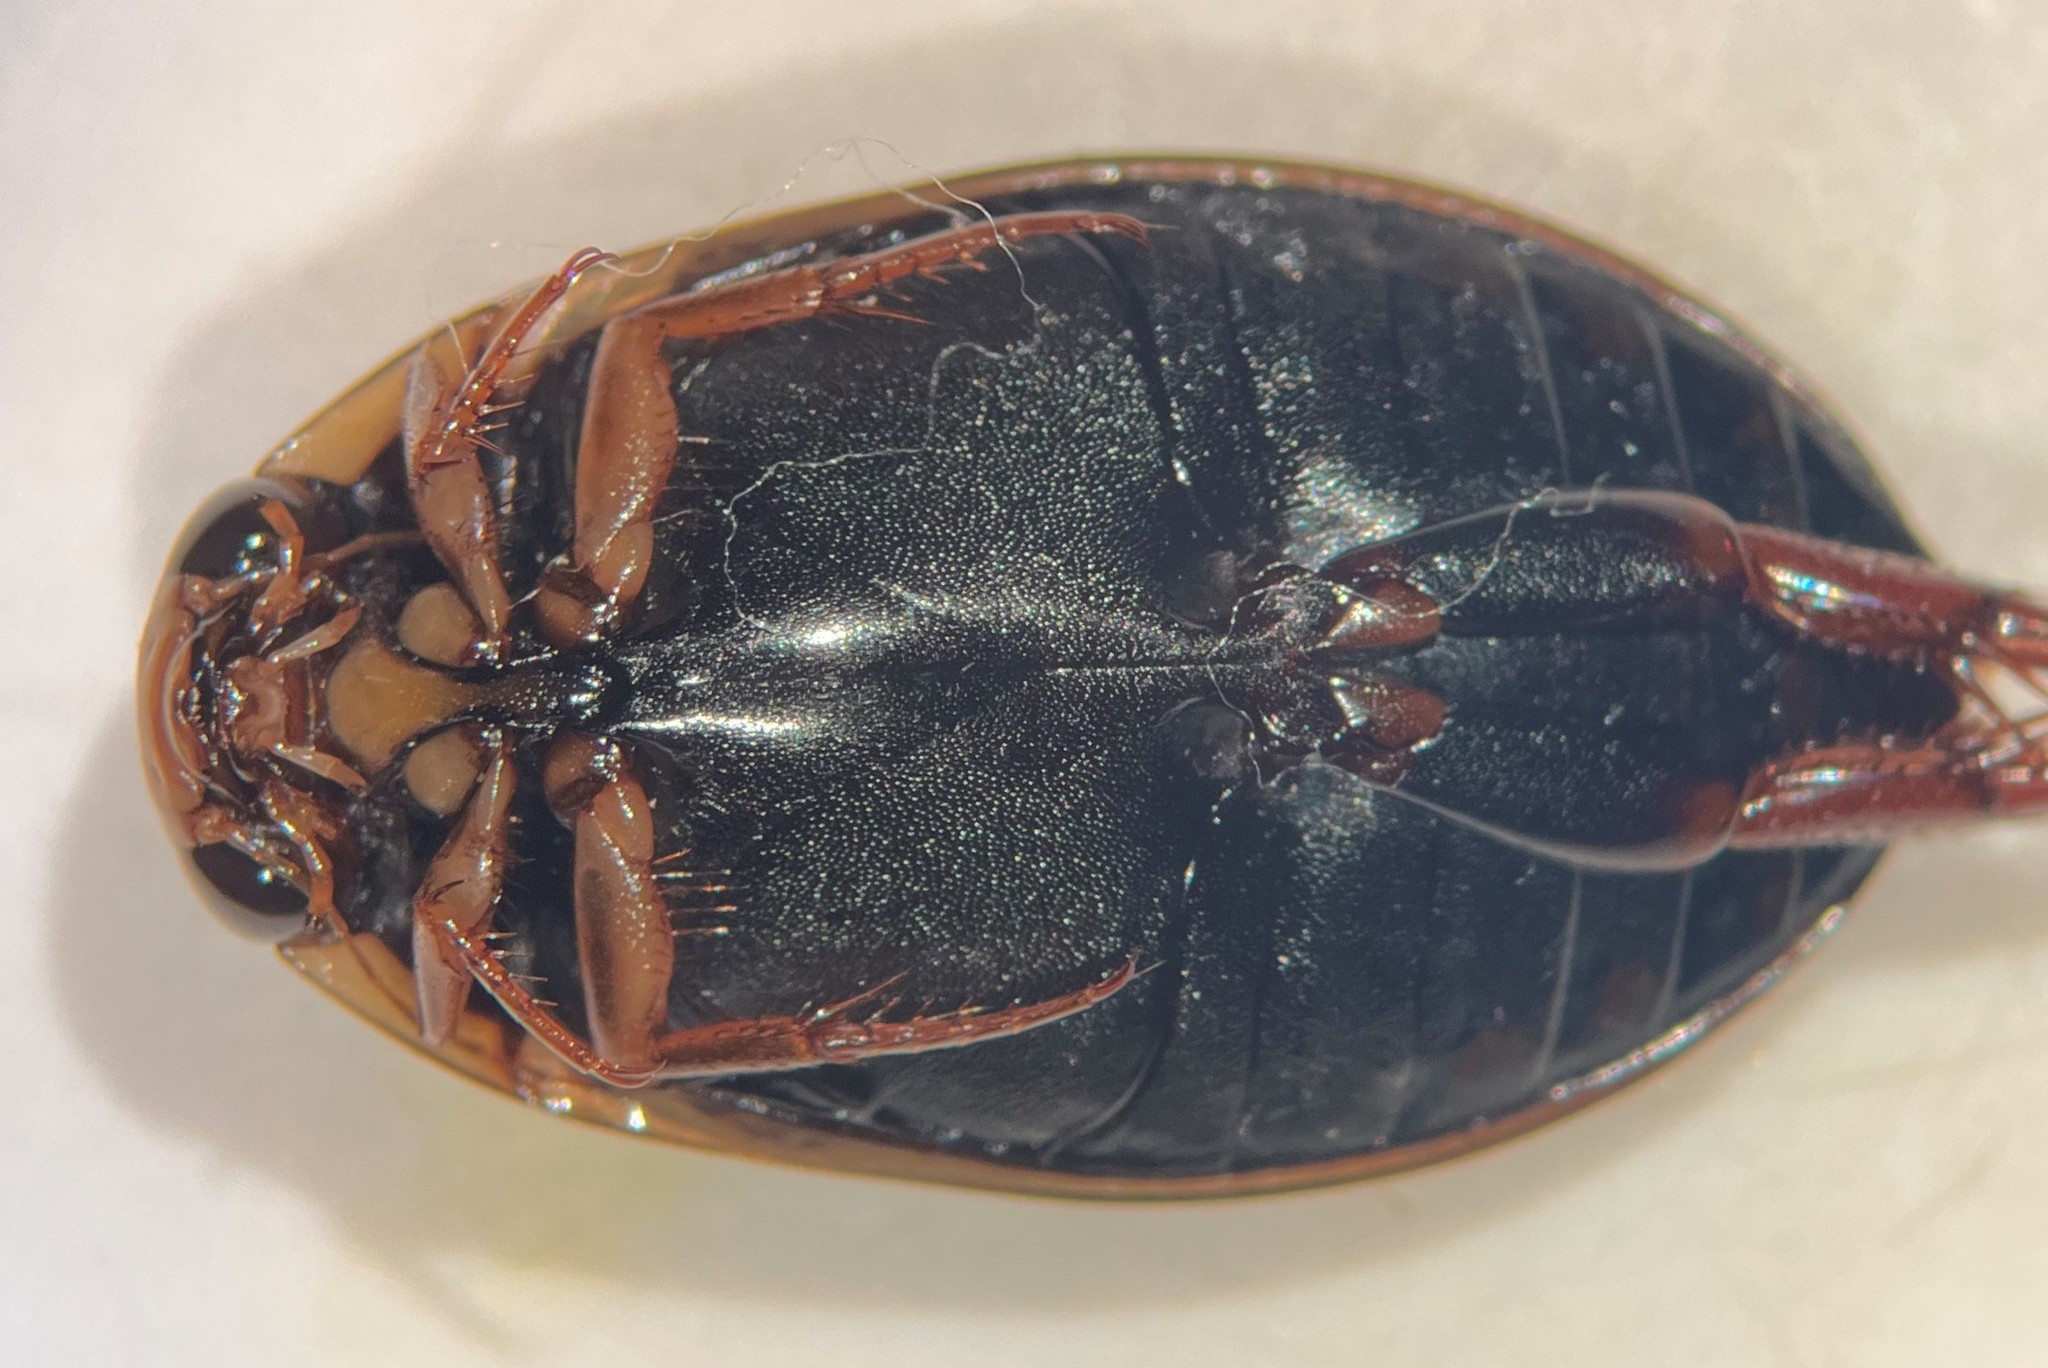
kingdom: Animalia
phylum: Arthropoda
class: Insecta
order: Coleoptera
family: Dytiscidae
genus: Acilius
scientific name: Acilius confusus
